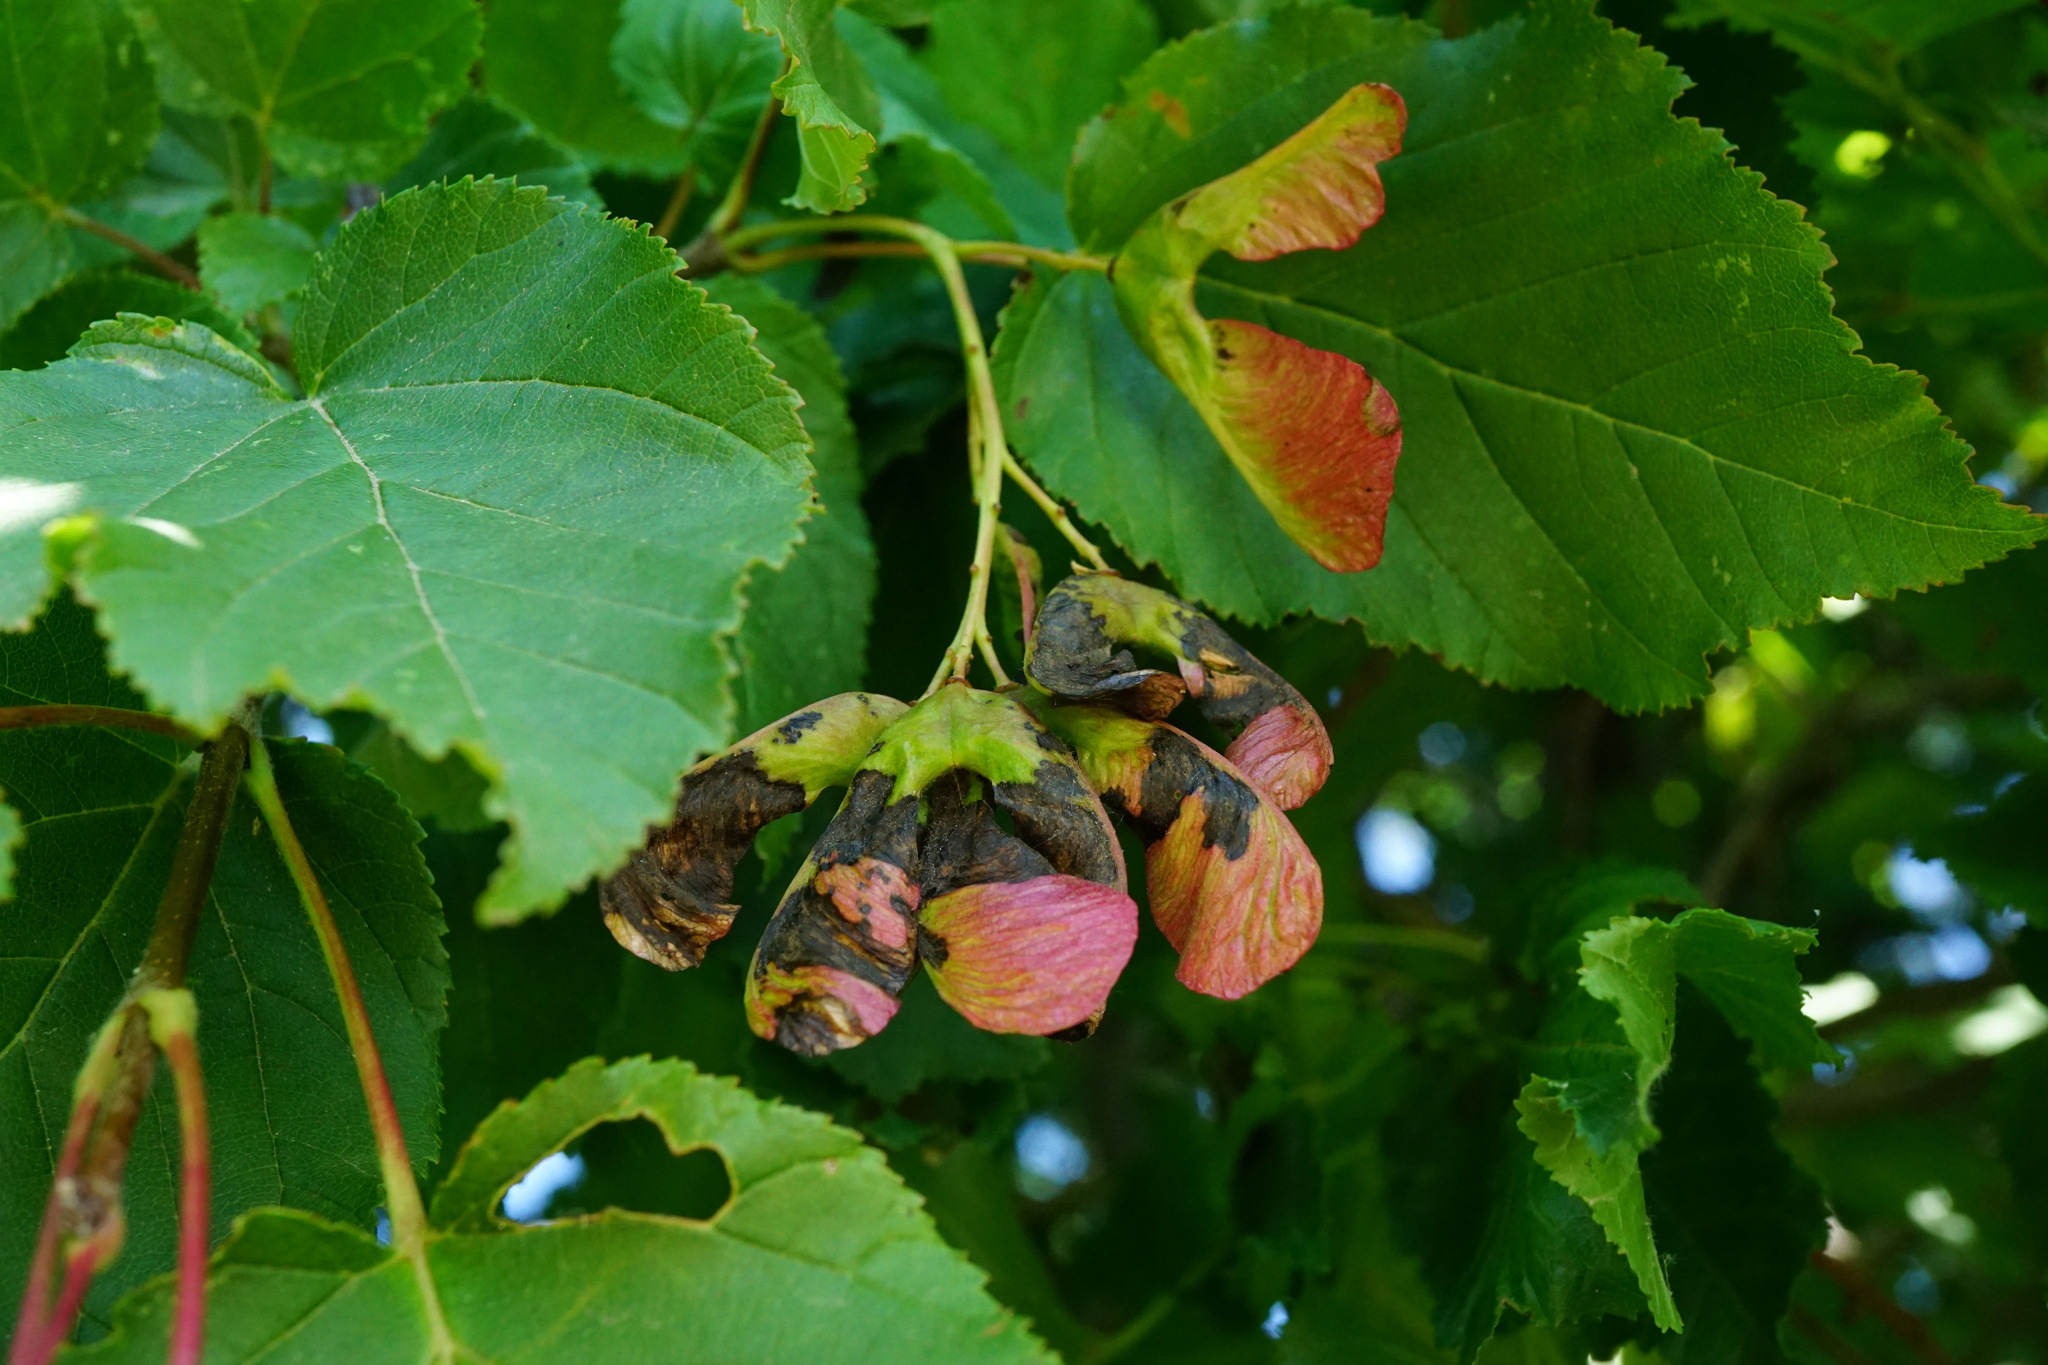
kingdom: Plantae
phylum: Tracheophyta
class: Magnoliopsida
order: Sapindales
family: Sapindaceae
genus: Acer
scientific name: Acer tataricum
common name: Tartar maple
